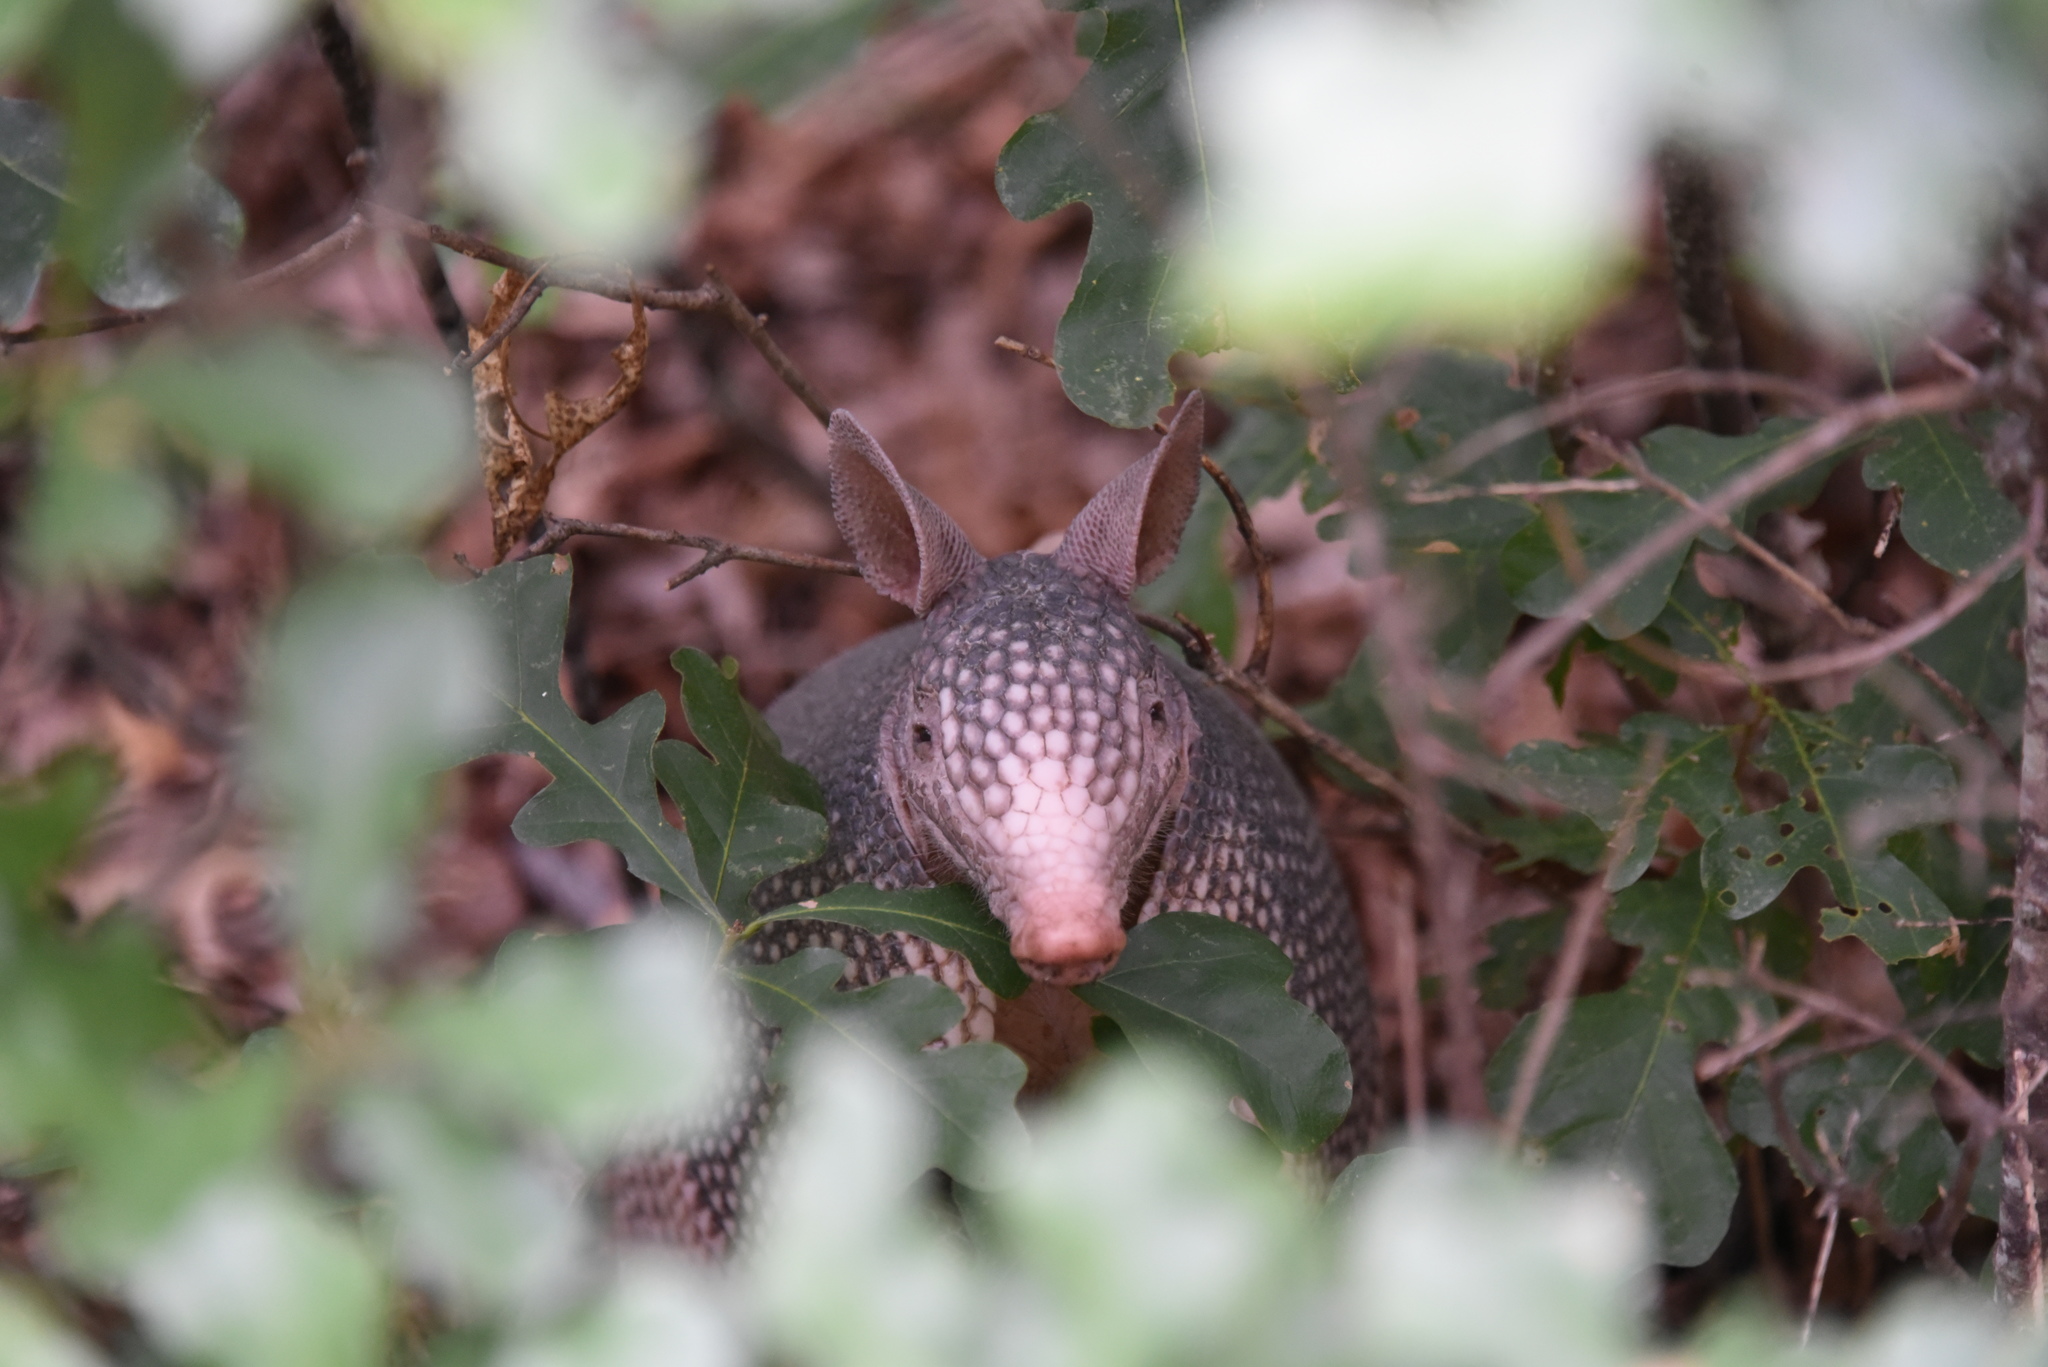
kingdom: Animalia
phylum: Chordata
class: Mammalia
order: Cingulata
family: Dasypodidae
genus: Dasypus
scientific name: Dasypus novemcinctus
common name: Nine-banded armadillo
